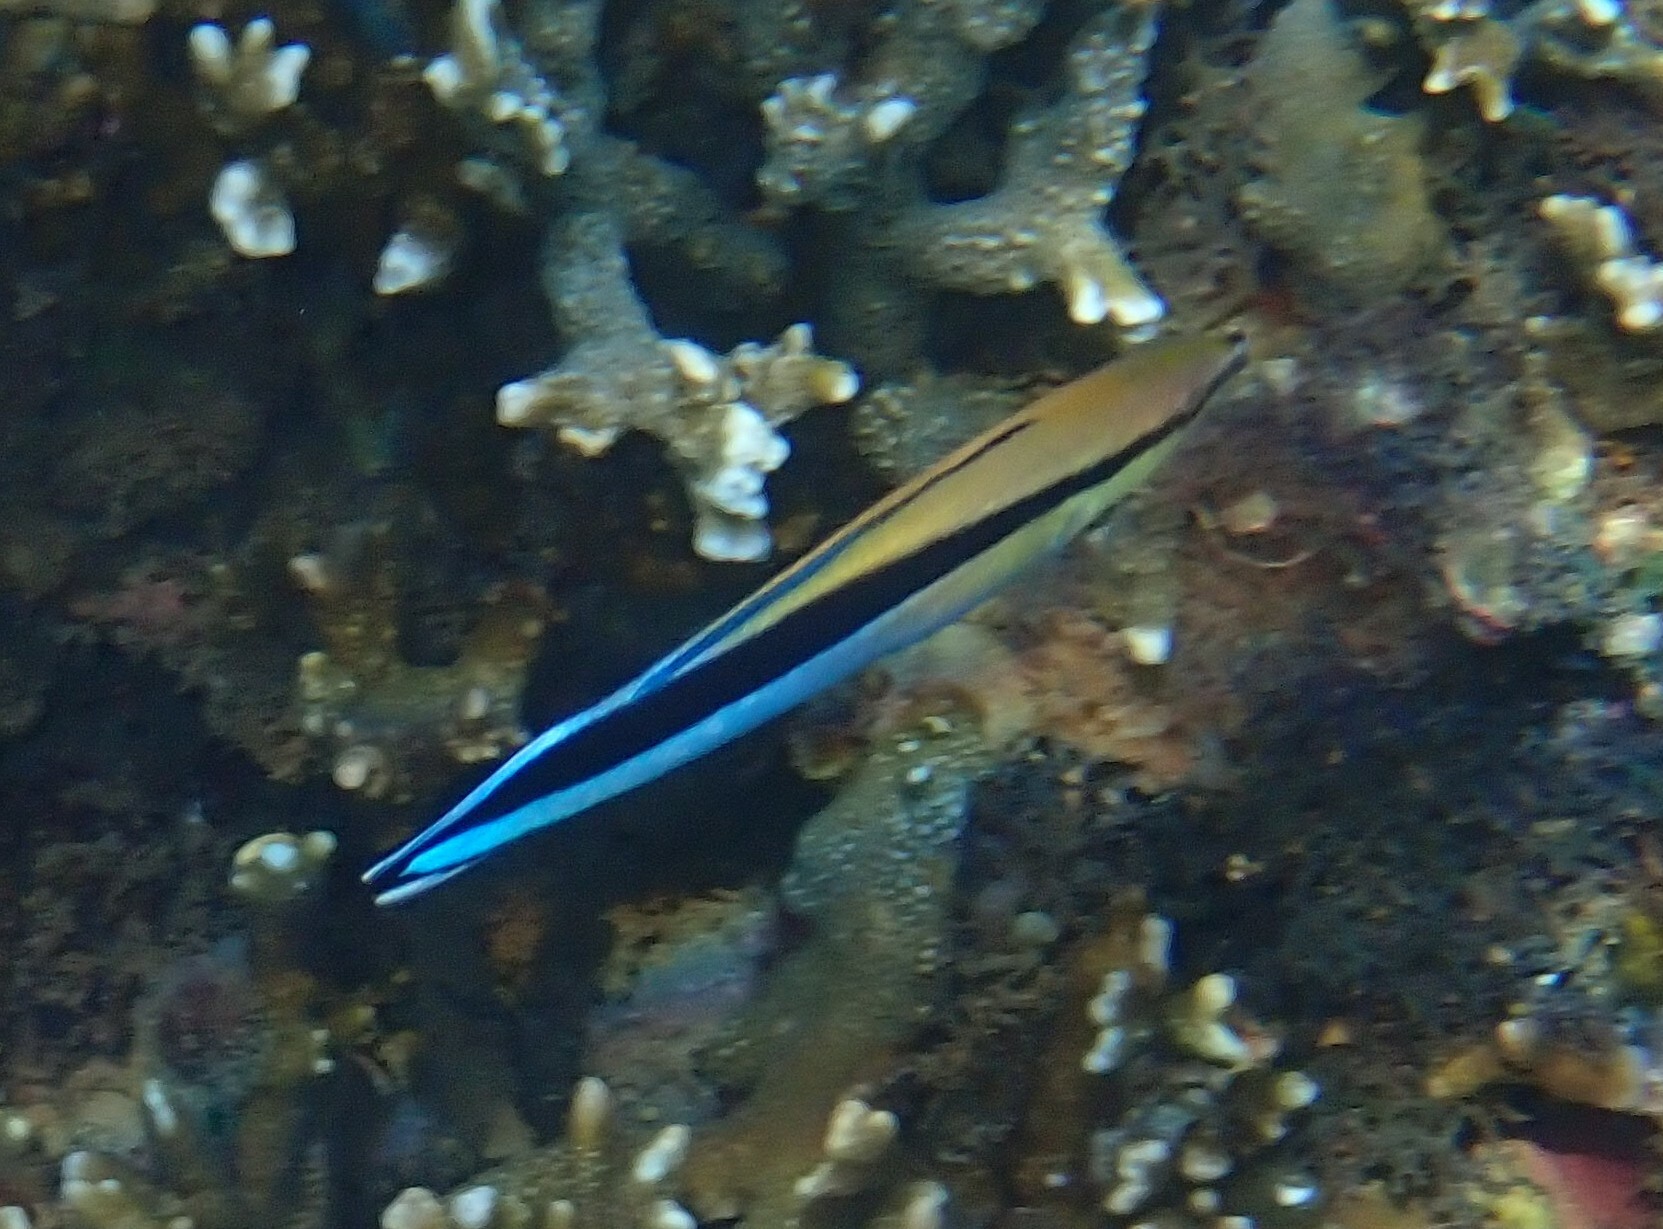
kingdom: Animalia
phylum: Chordata
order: Perciformes
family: Labridae
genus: Labroides
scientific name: Labroides dimidiatus
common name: Blue diesel wrasse
